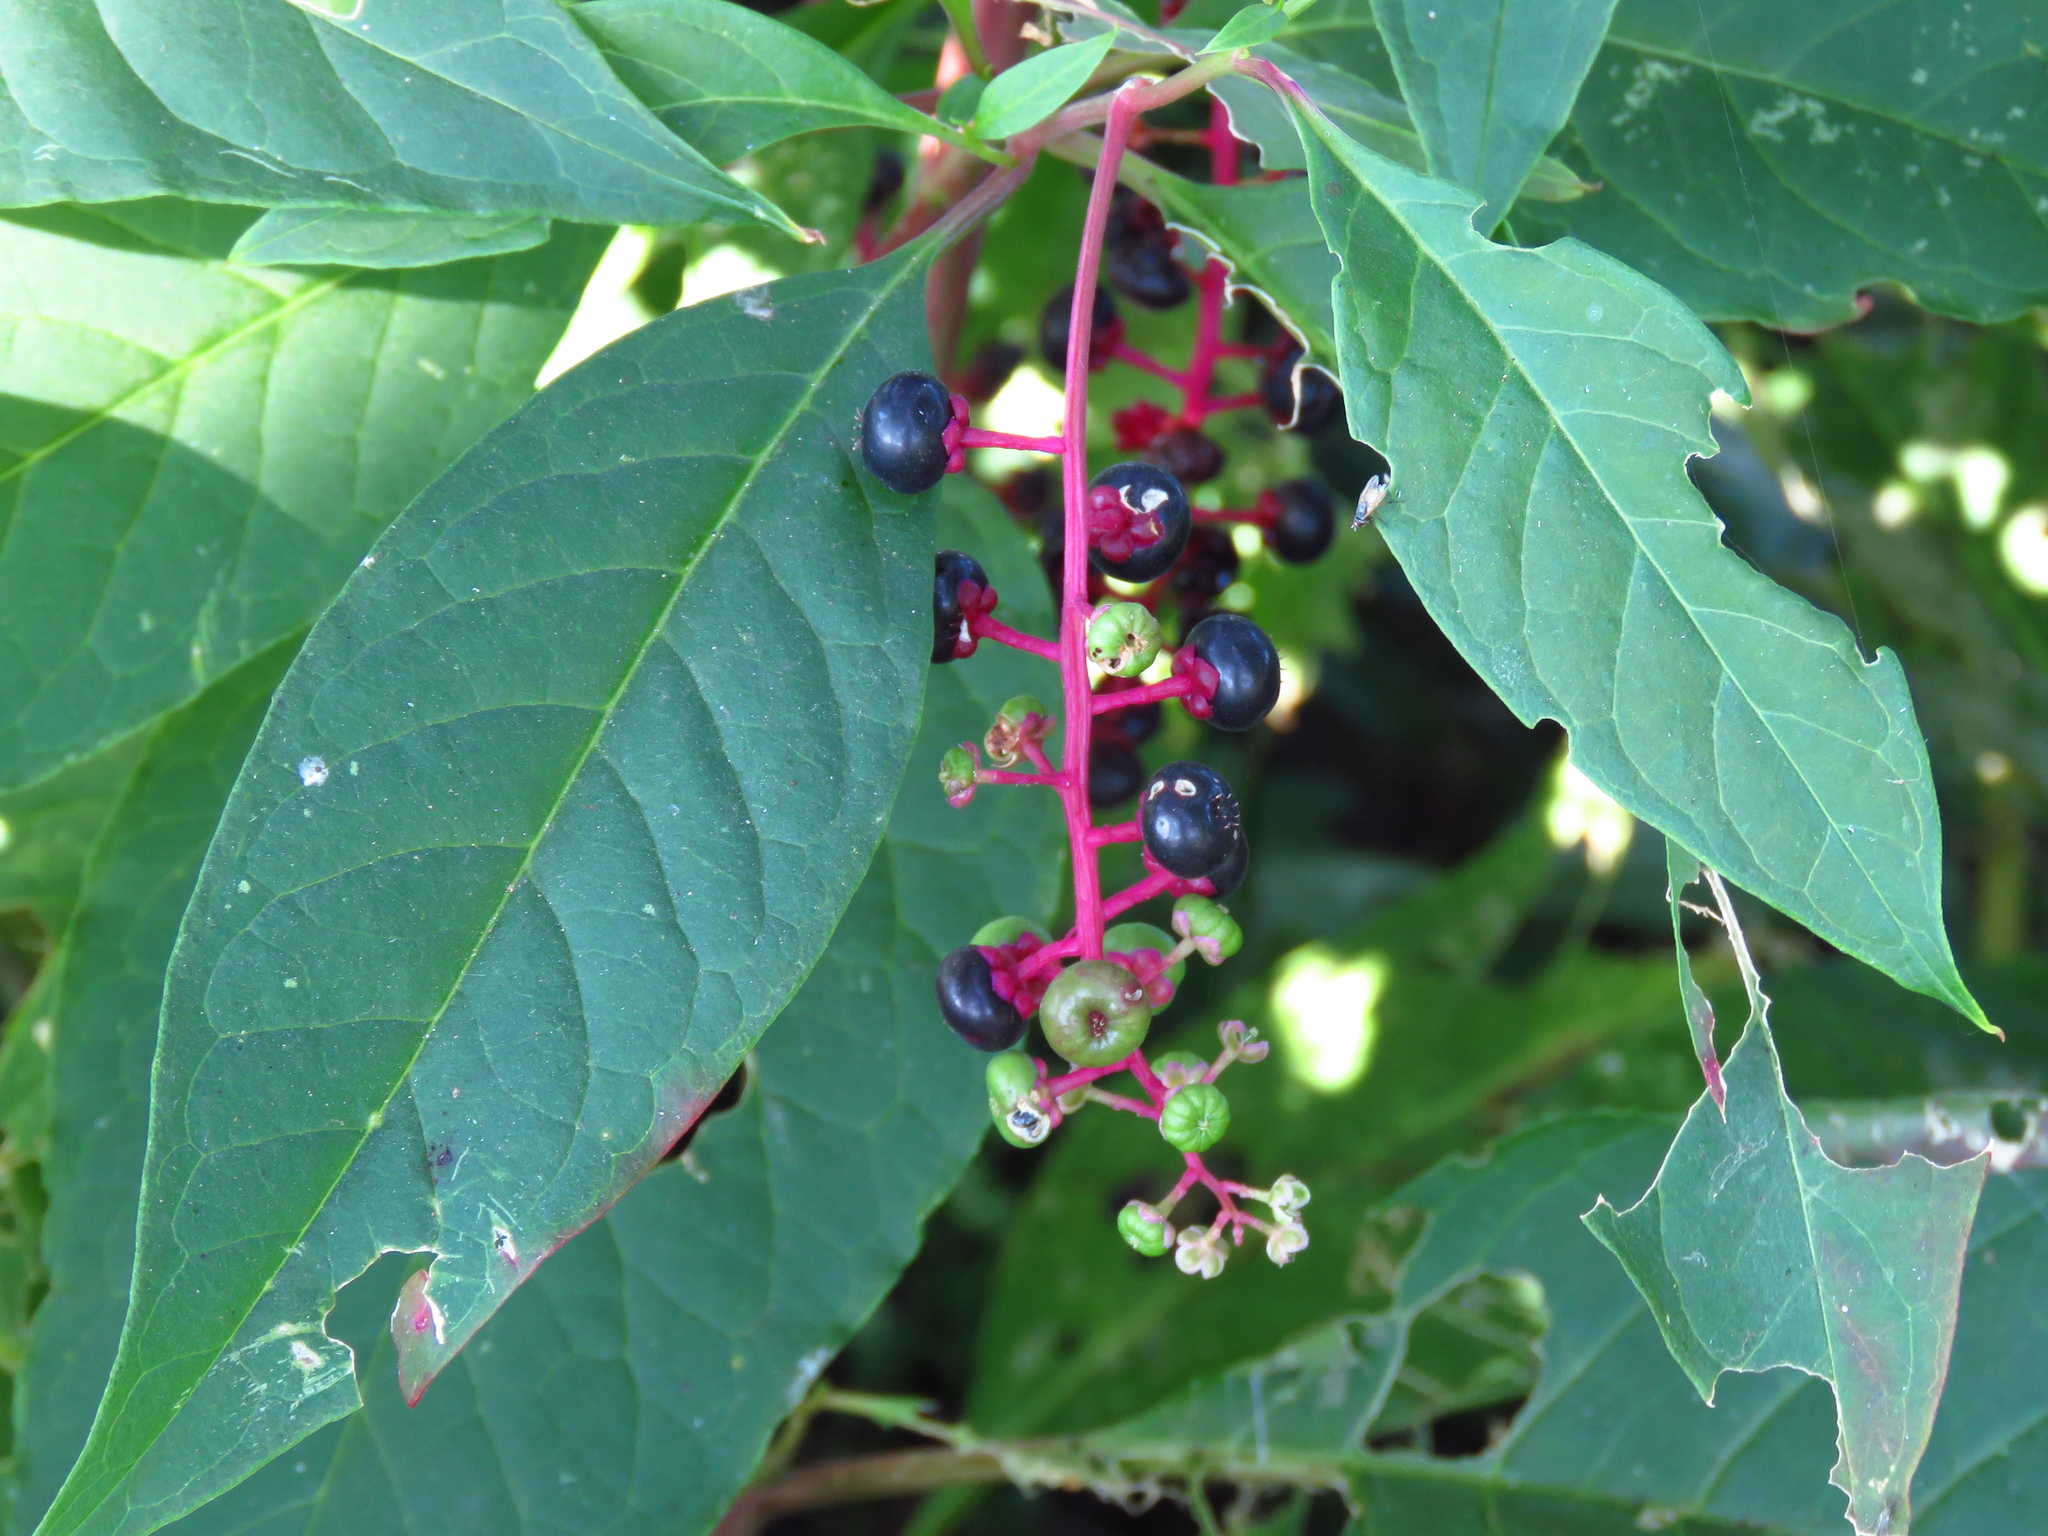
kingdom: Plantae
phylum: Tracheophyta
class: Magnoliopsida
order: Caryophyllales
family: Phytolaccaceae
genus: Phytolacca
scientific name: Phytolacca americana
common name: American pokeweed
